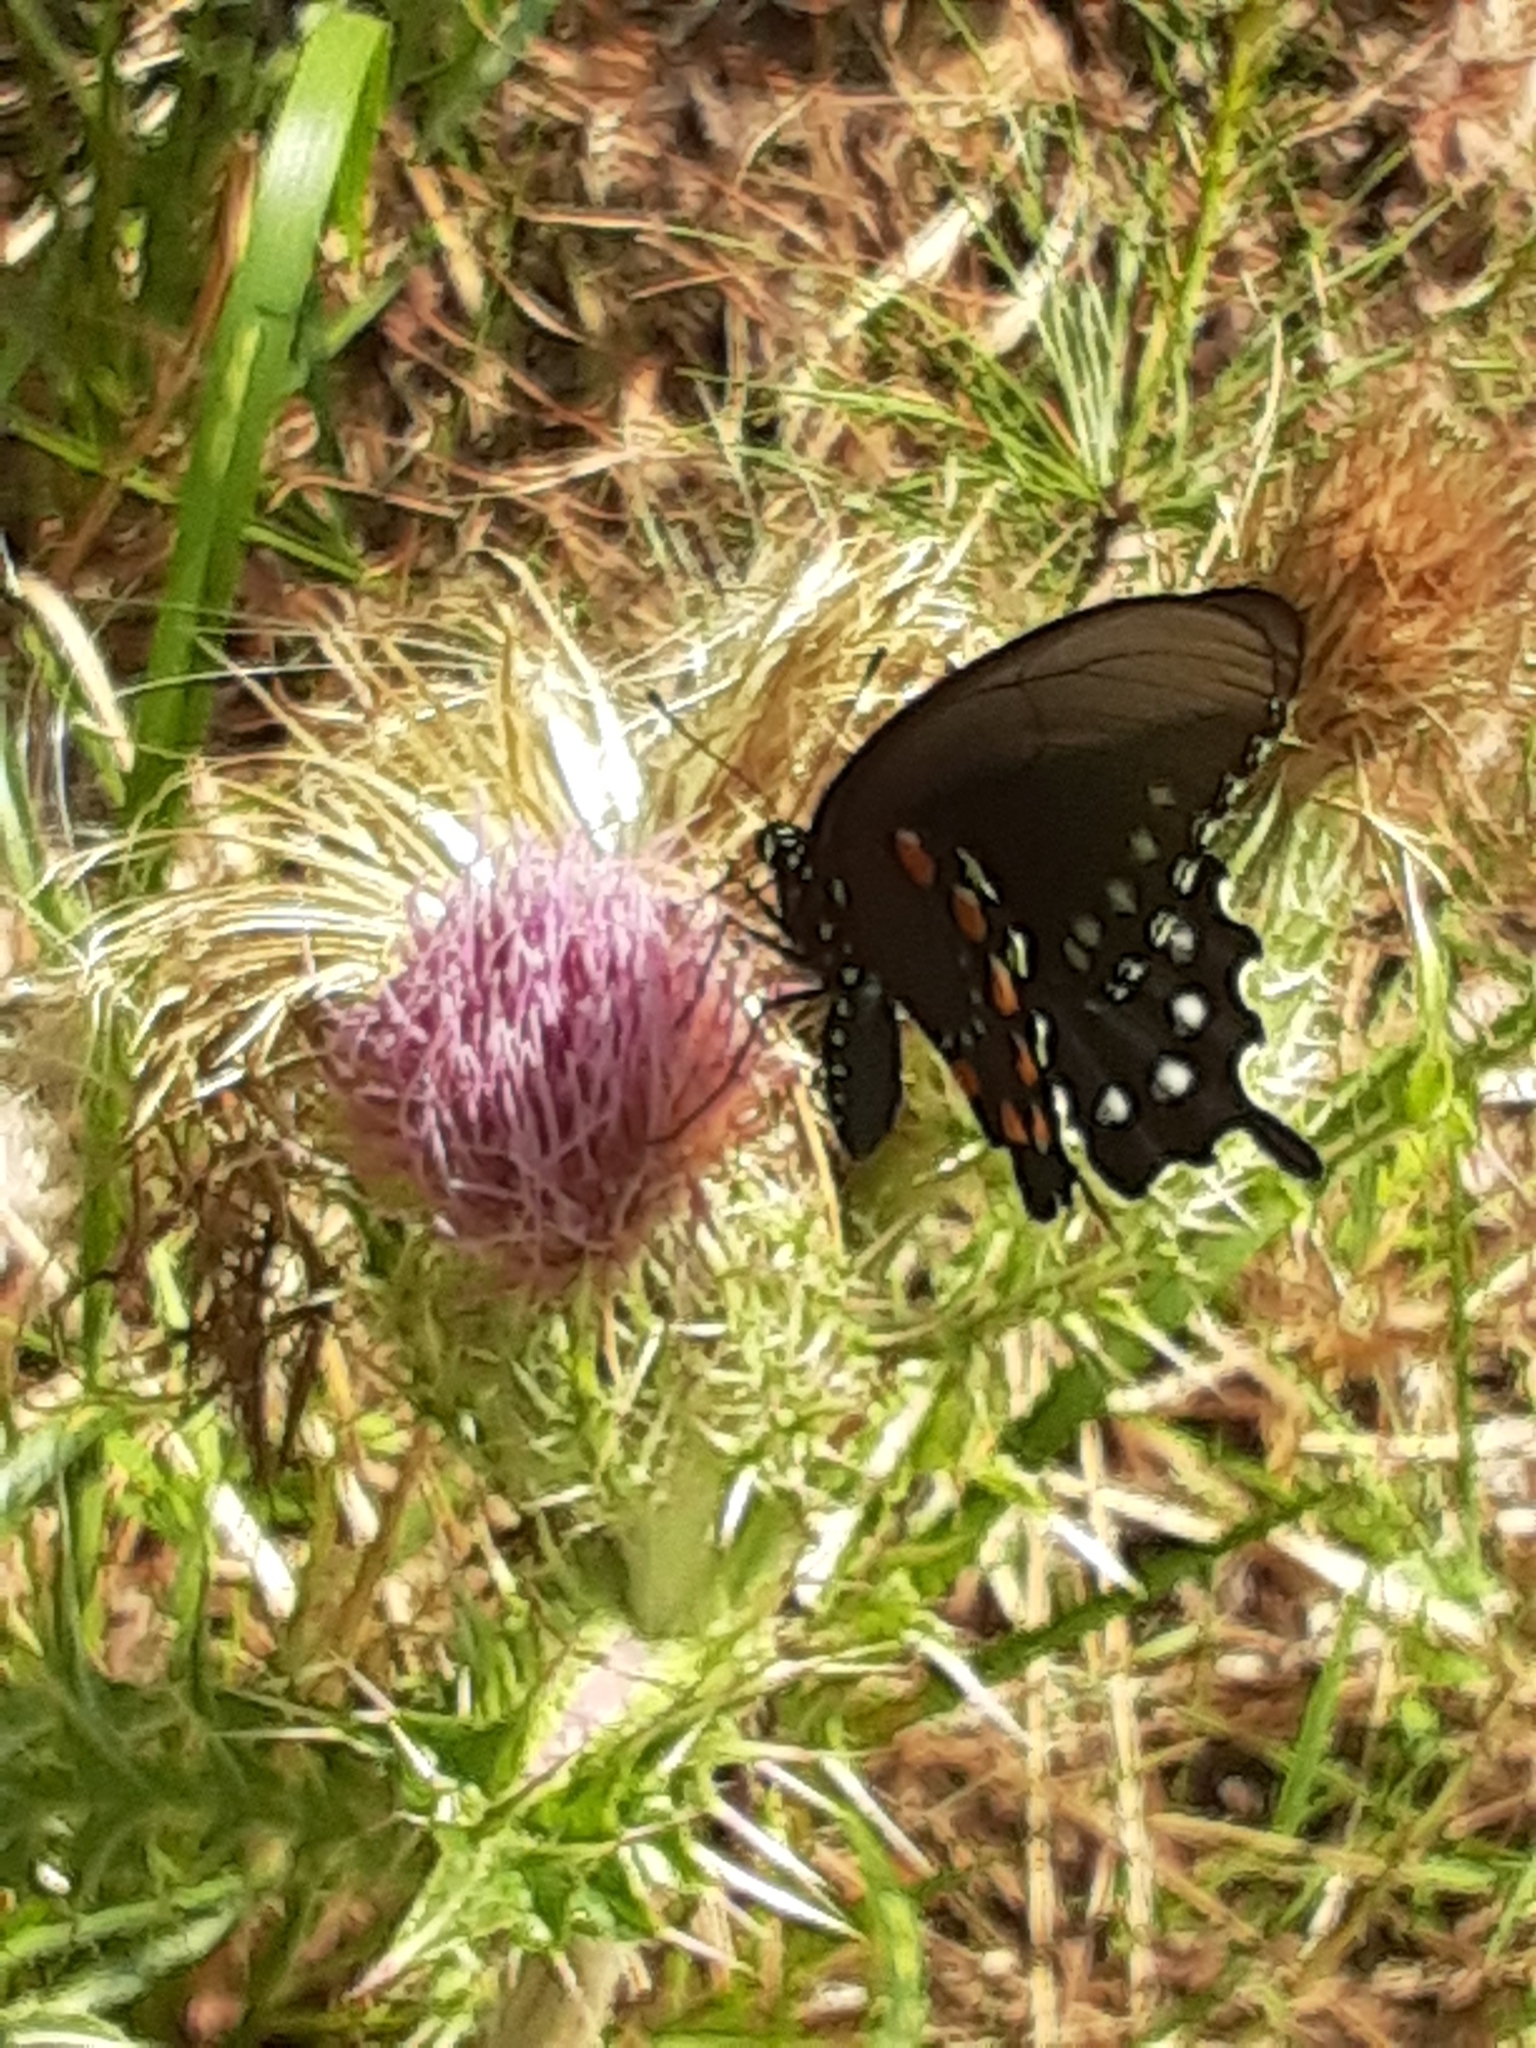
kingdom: Animalia
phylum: Arthropoda
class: Insecta
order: Lepidoptera
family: Papilionidae
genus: Battus
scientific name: Battus philenor
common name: Pipevine swallowtail
